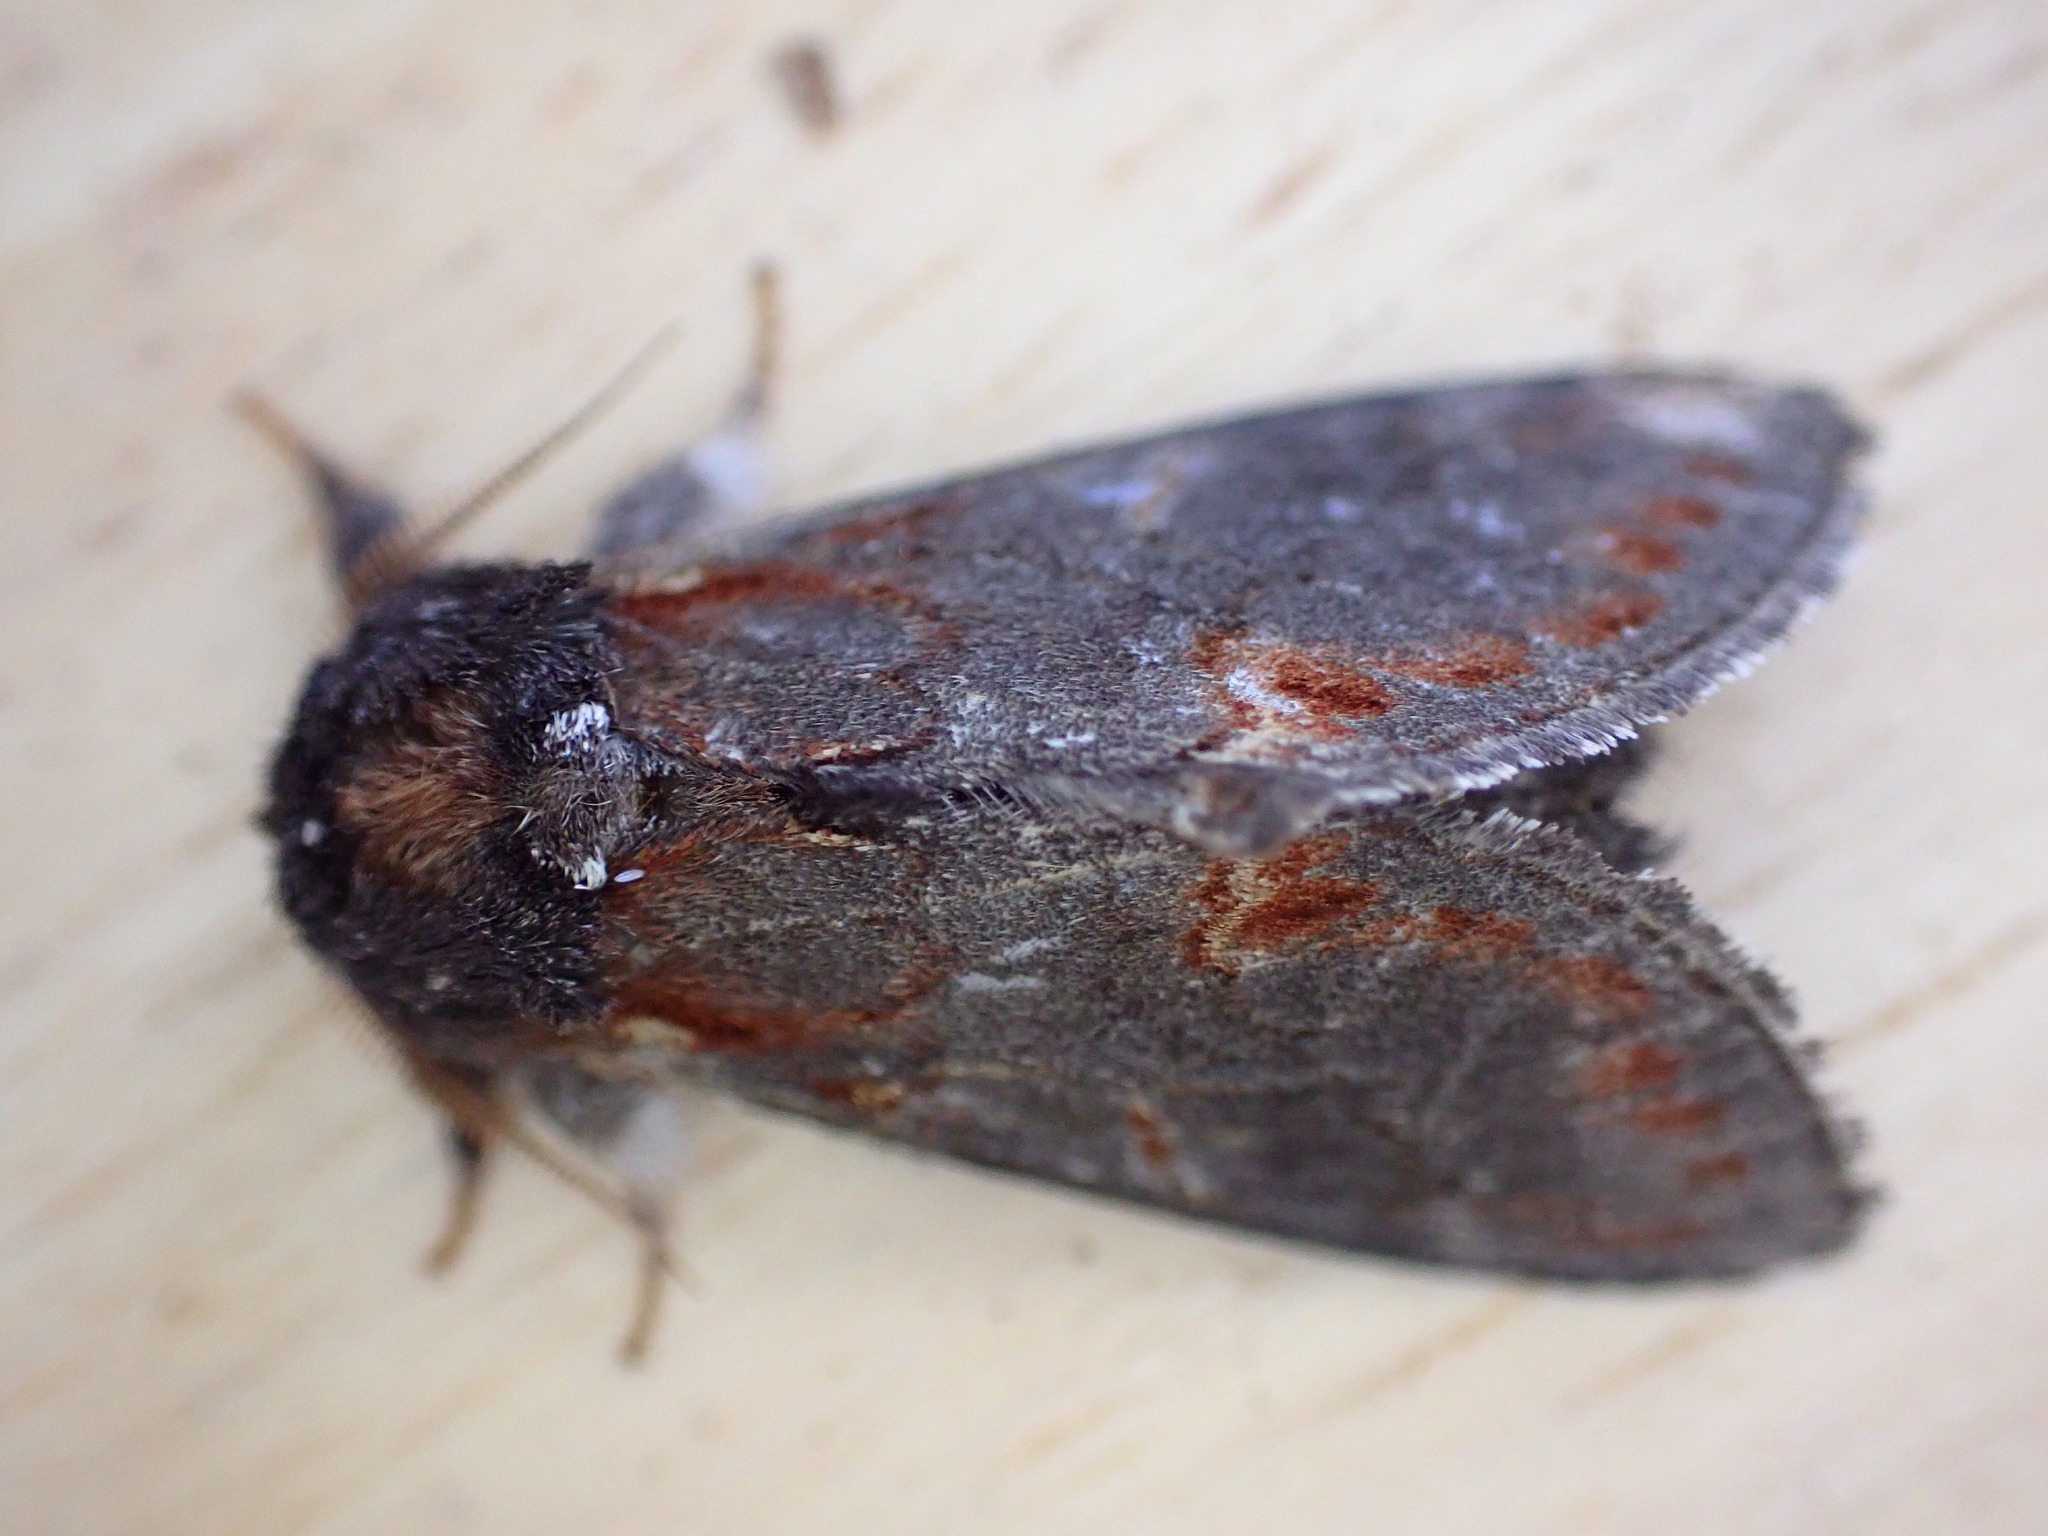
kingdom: Animalia
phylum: Arthropoda
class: Insecta
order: Lepidoptera
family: Notodontidae
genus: Notodonta
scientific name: Notodonta dromedarius
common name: Iron prominent
